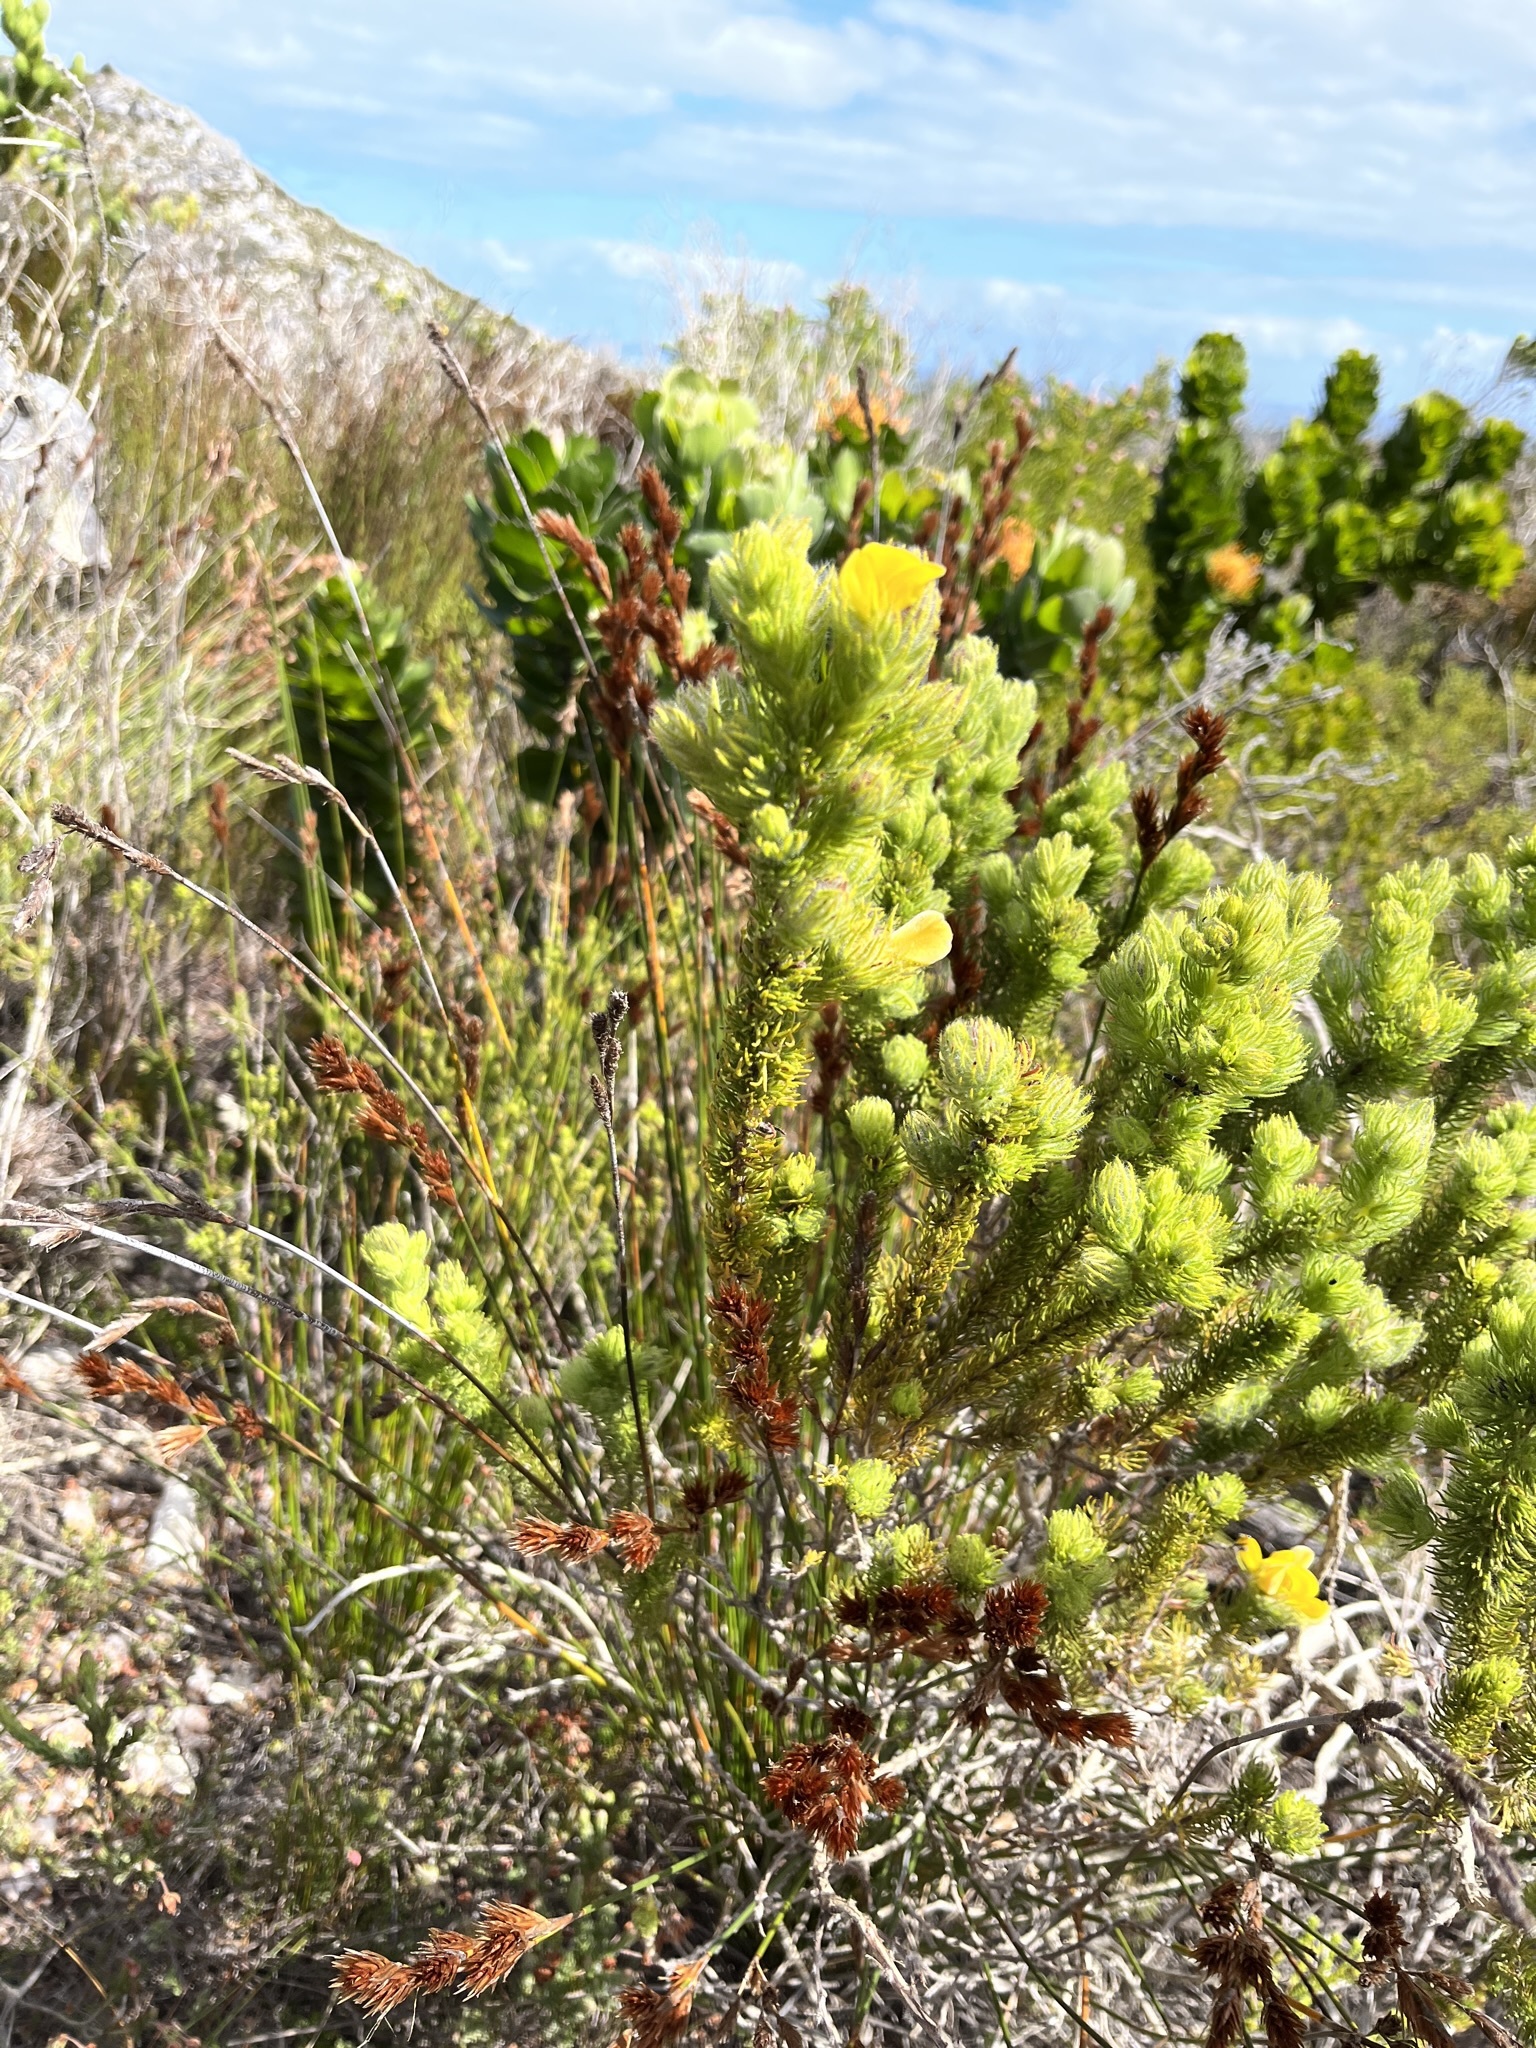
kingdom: Plantae
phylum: Tracheophyta
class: Magnoliopsida
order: Fabales
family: Fabaceae
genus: Aspalathus
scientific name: Aspalathus ciliaris
